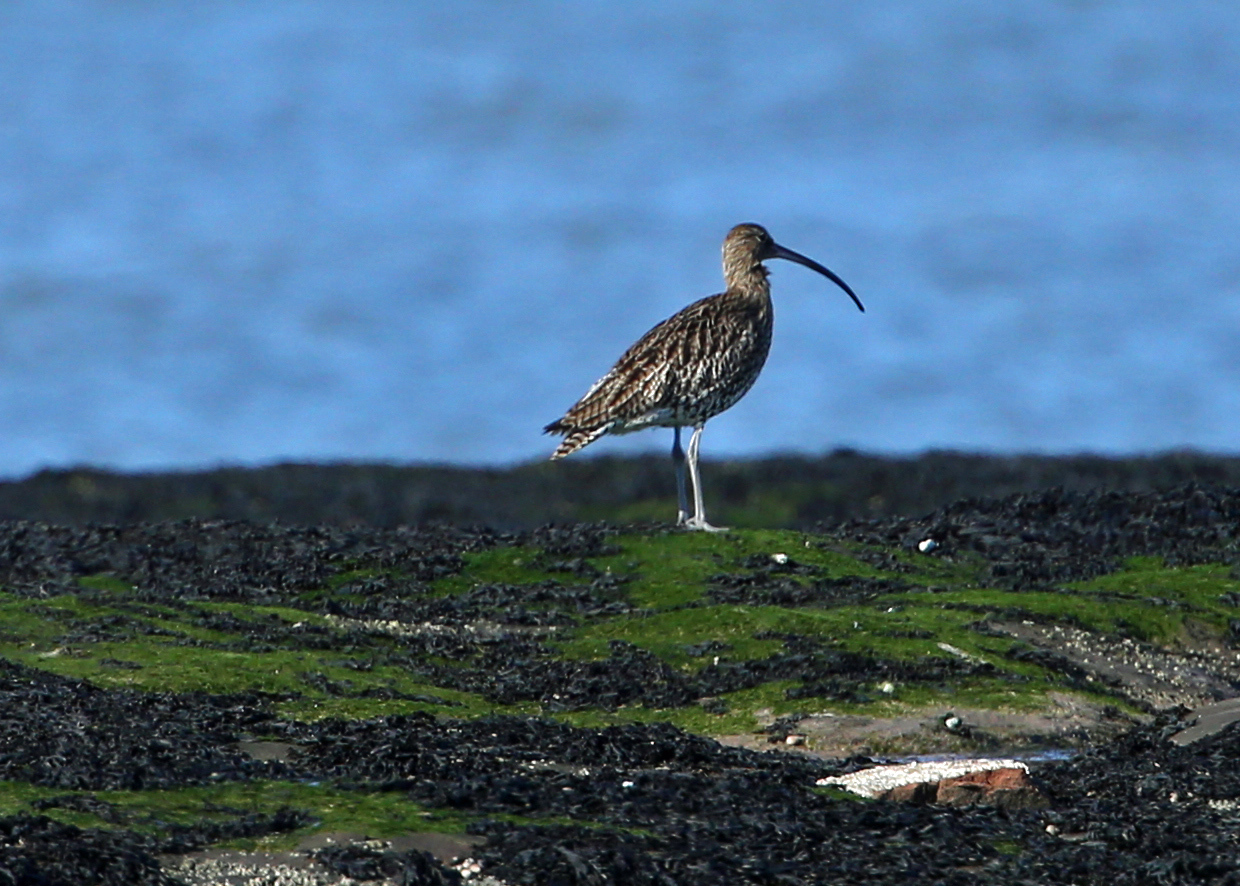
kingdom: Animalia
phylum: Chordata
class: Aves
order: Charadriiformes
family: Scolopacidae
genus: Numenius
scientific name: Numenius arquata
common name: Eurasian curlew
